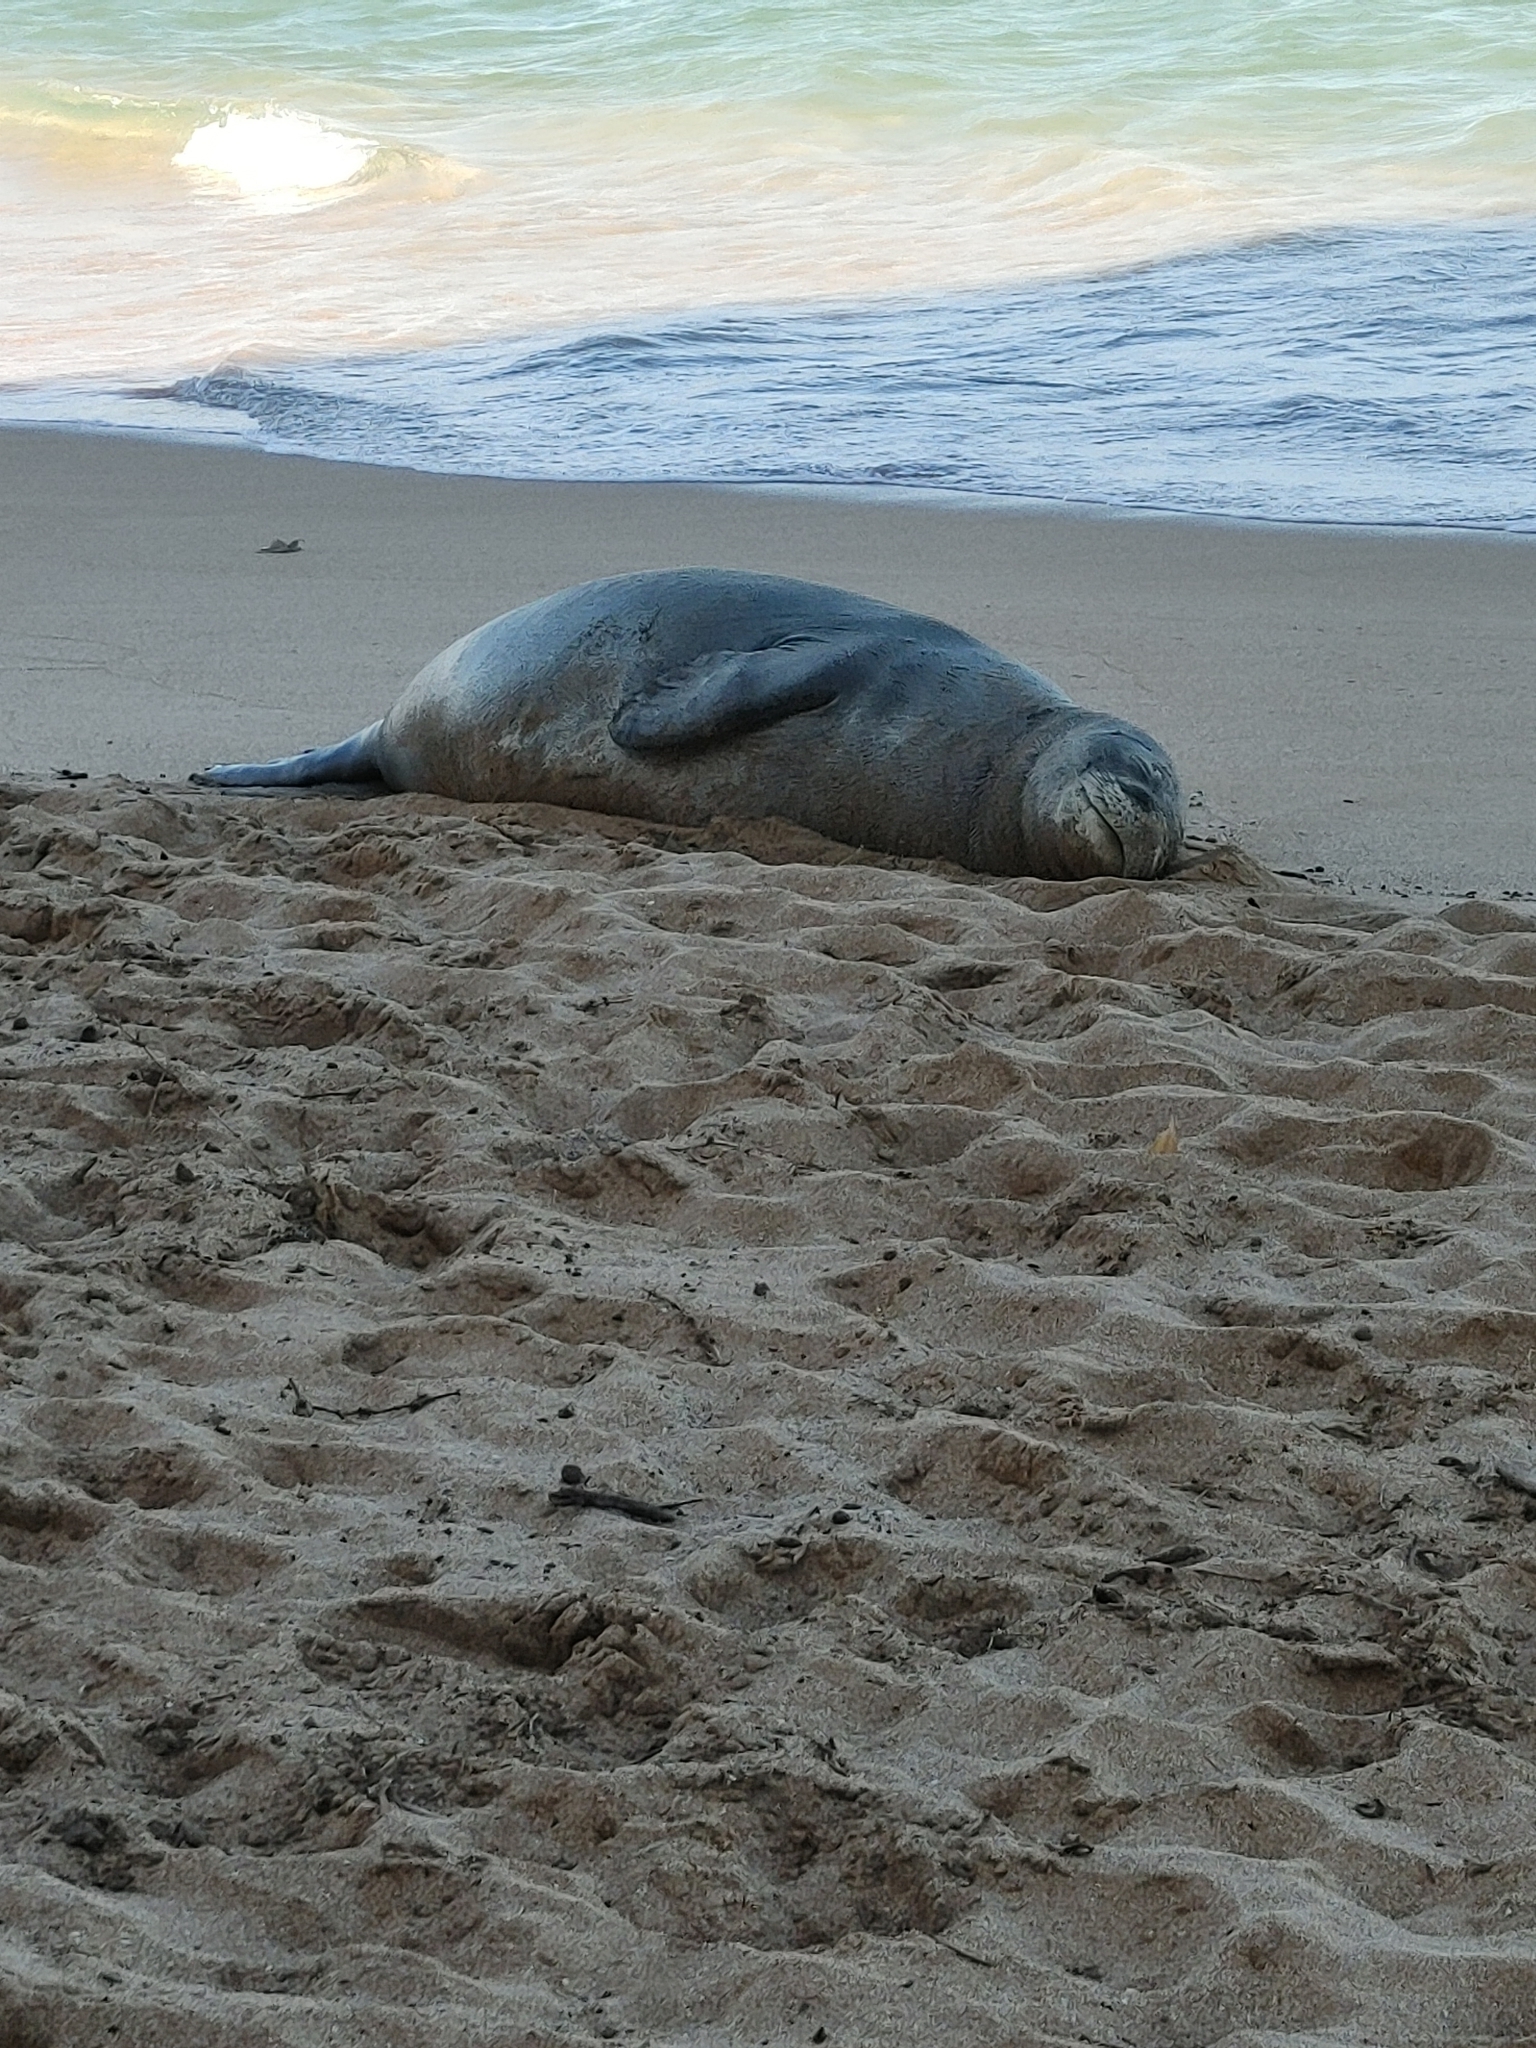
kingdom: Animalia
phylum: Chordata
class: Mammalia
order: Carnivora
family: Phocidae
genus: Neomonachus
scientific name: Neomonachus schauinslandi
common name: Hawaiian monk seal
